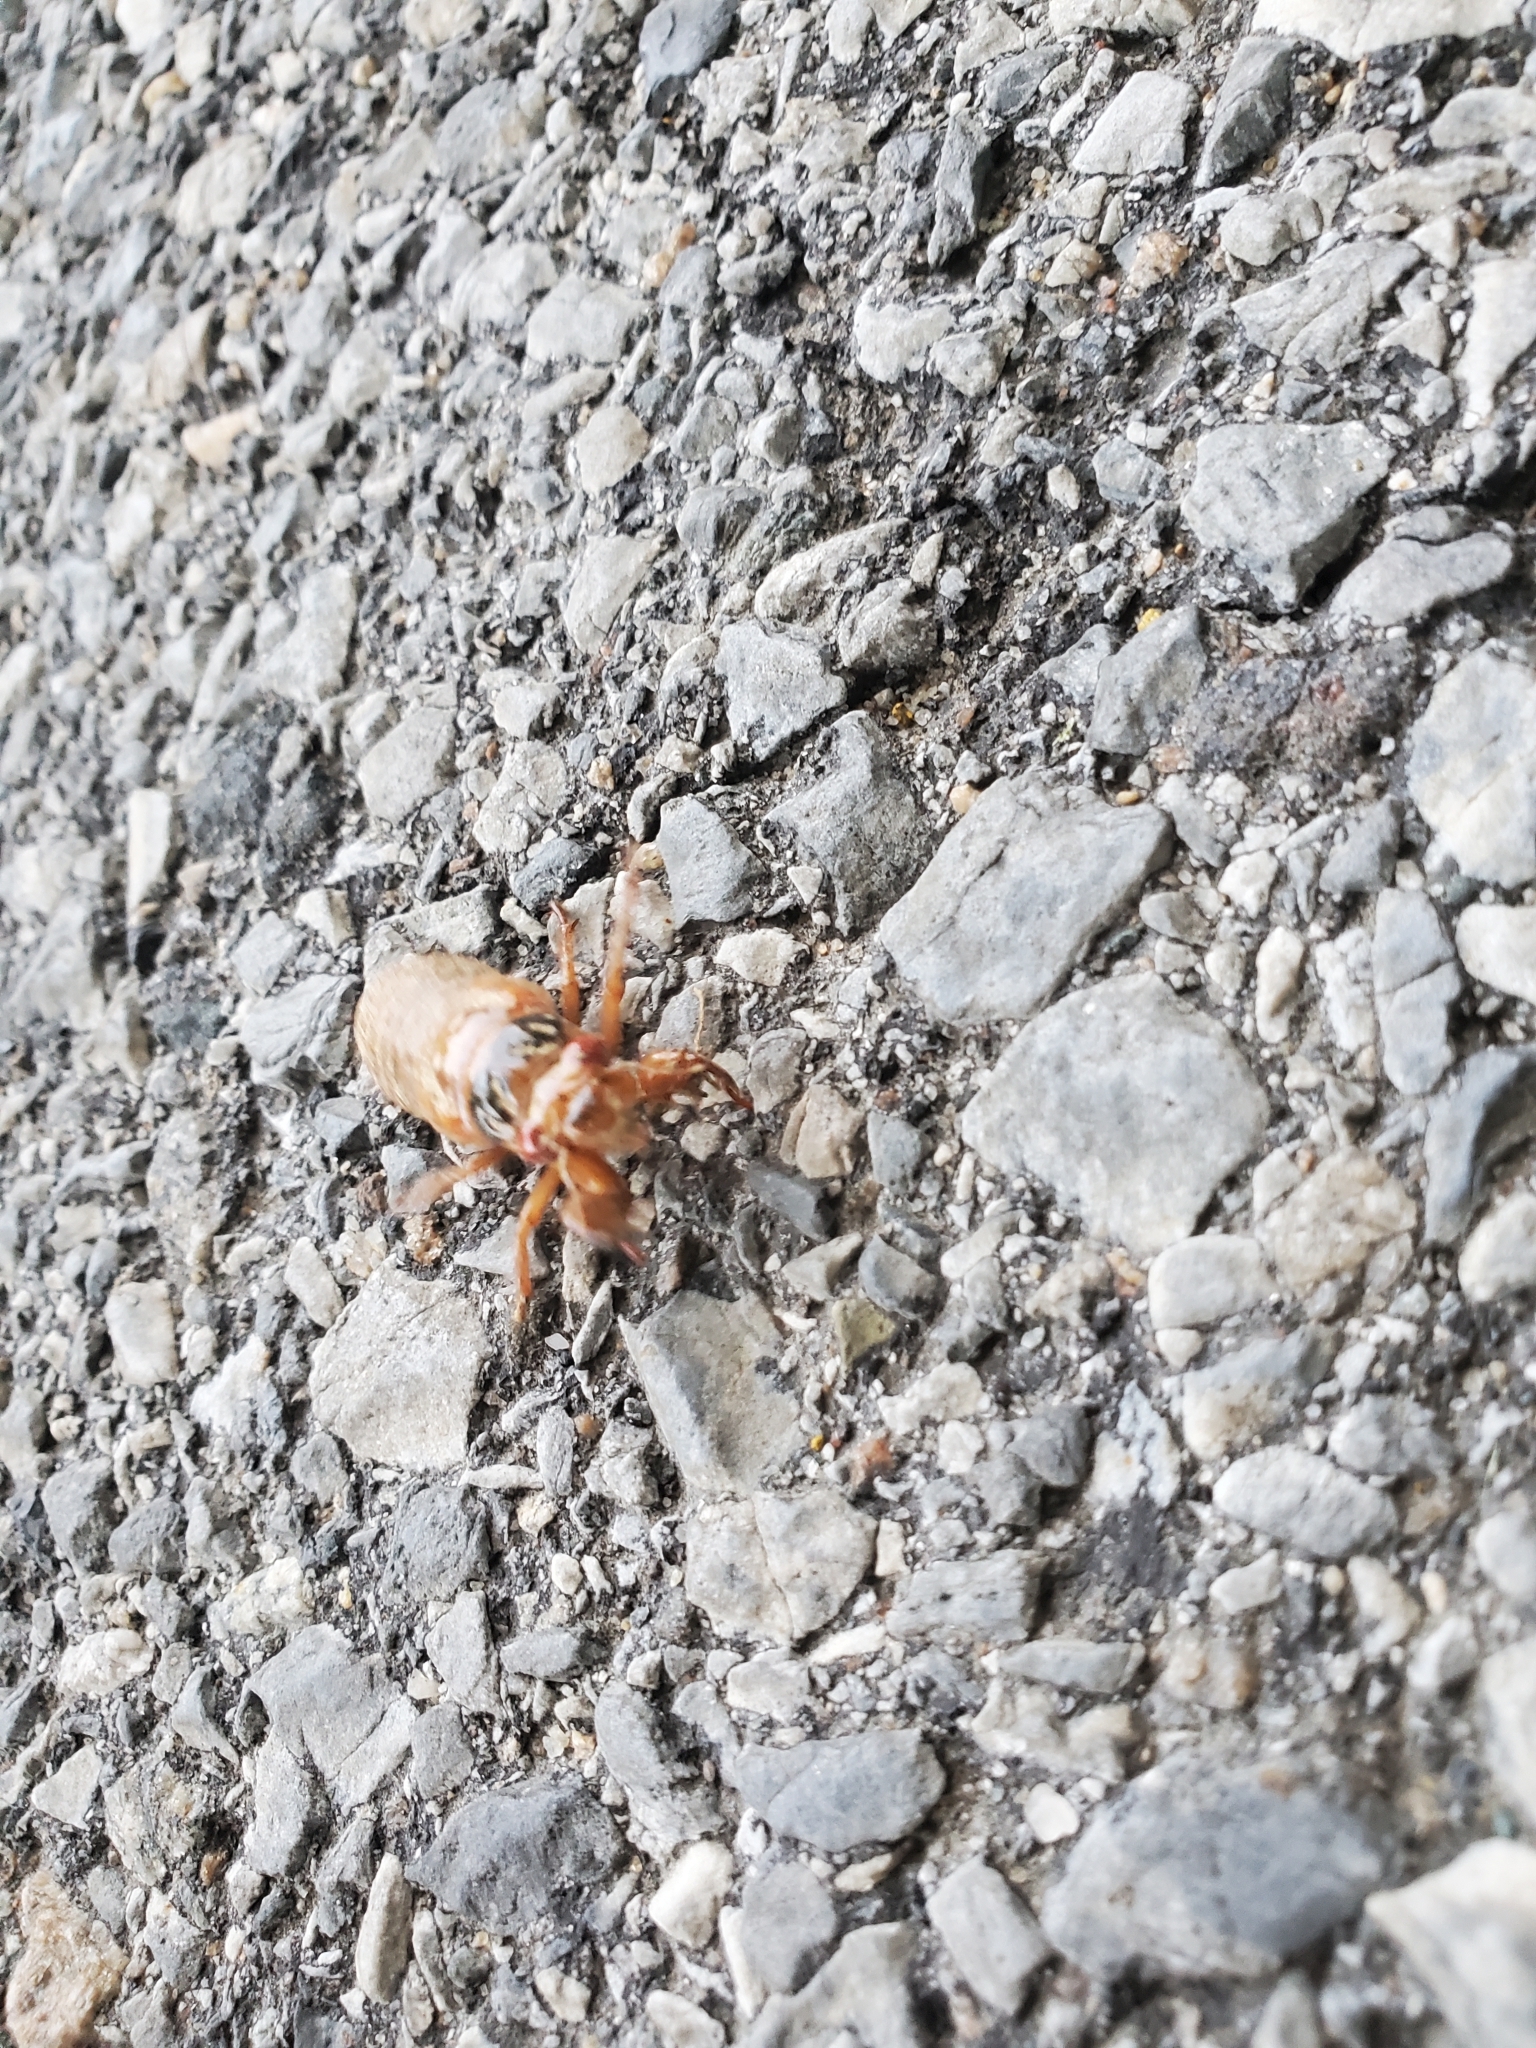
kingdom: Animalia
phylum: Arthropoda
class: Insecta
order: Hemiptera
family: Cicadidae
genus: Magicicada
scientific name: Magicicada
